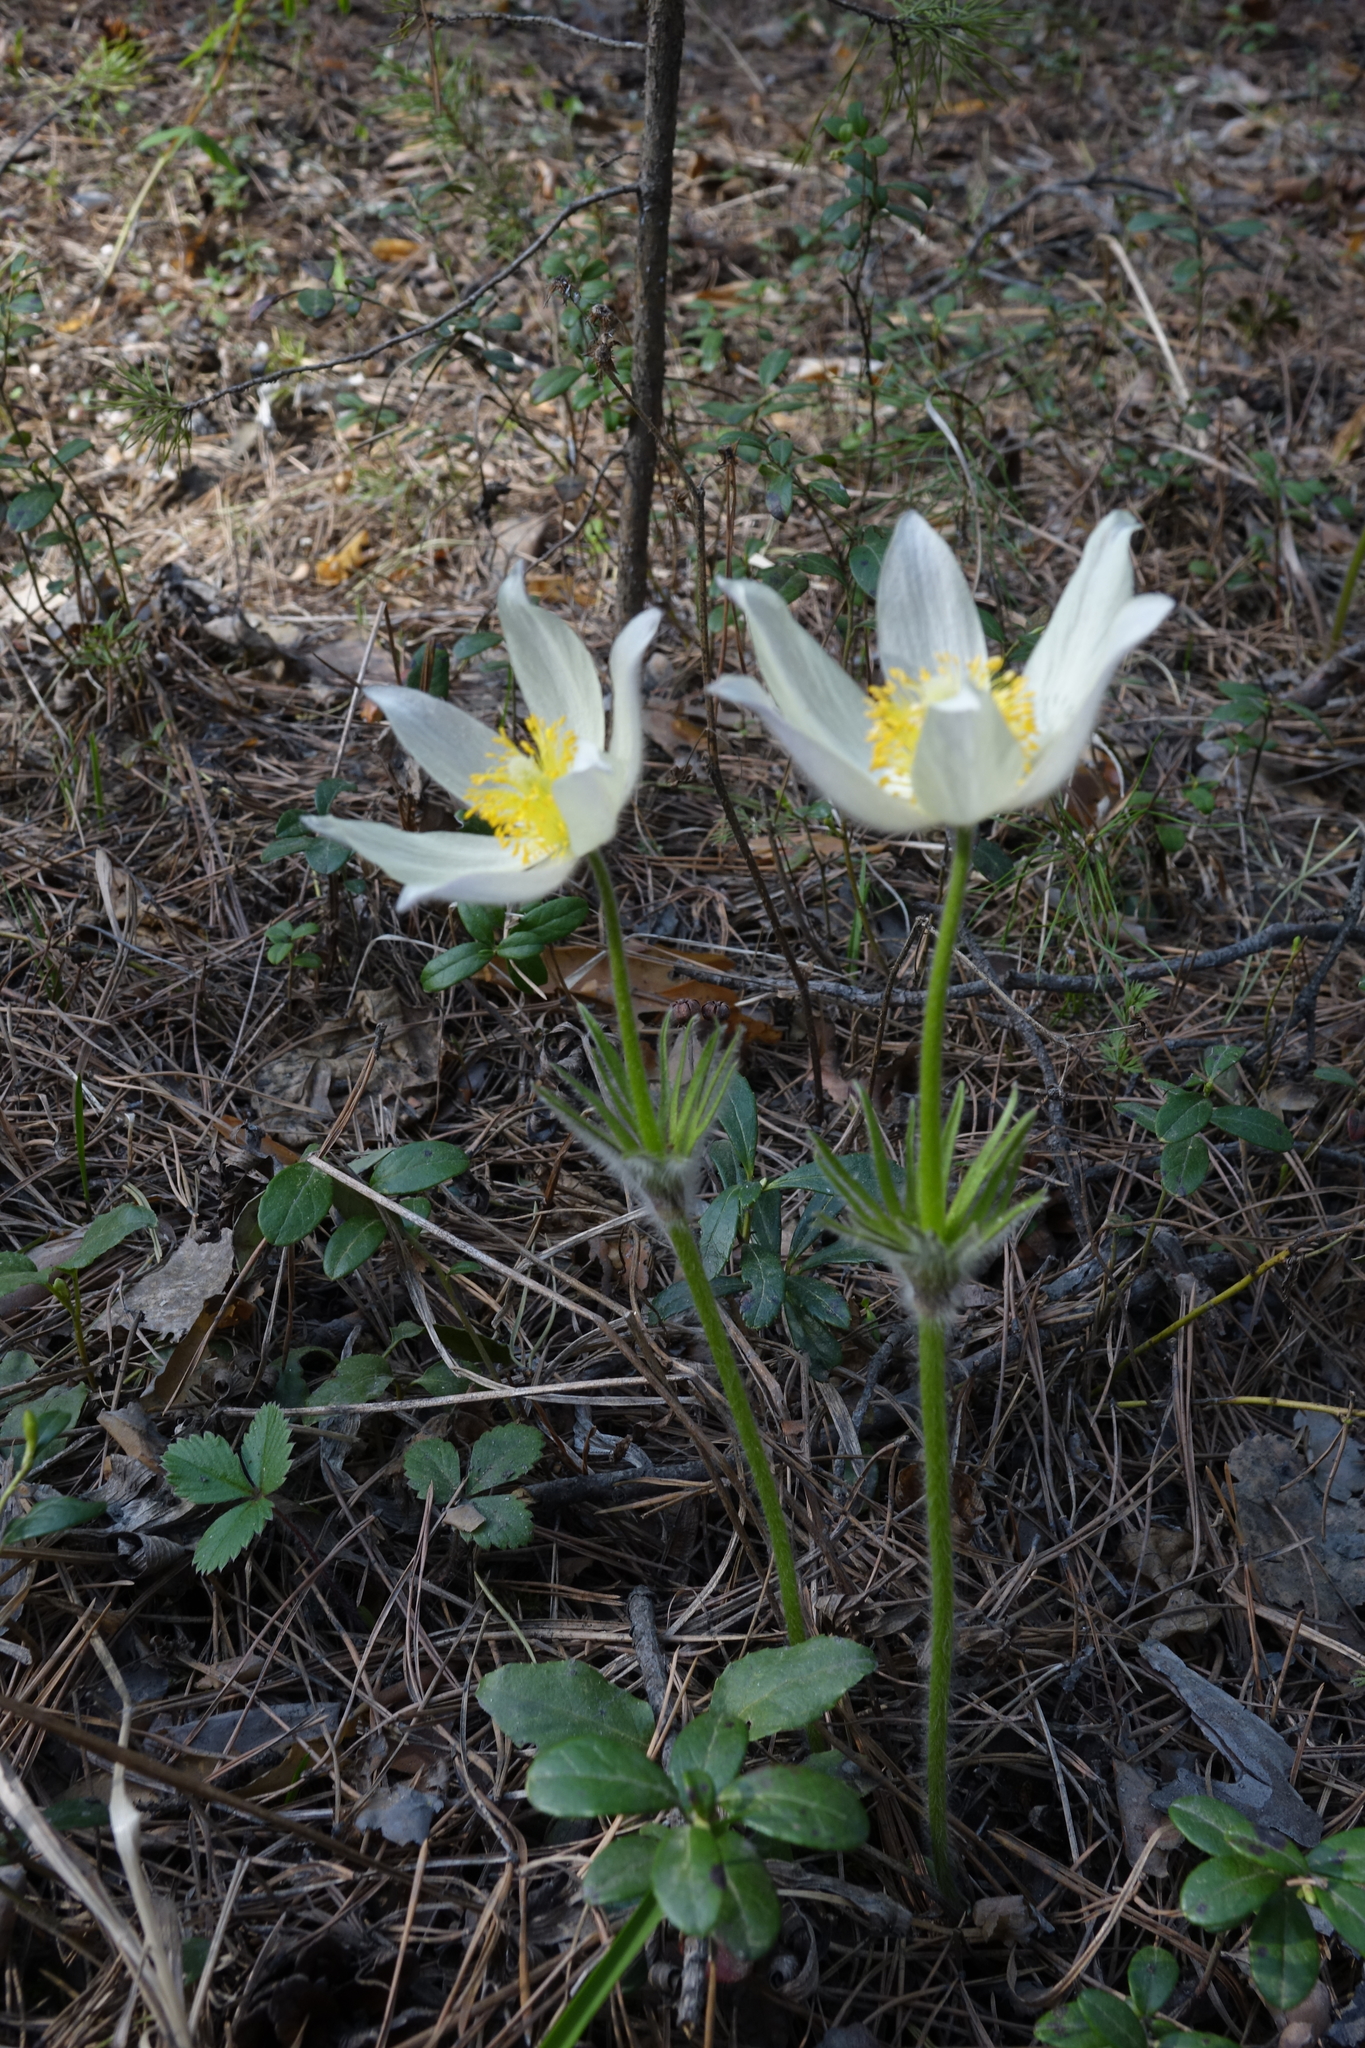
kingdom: Plantae
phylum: Tracheophyta
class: Magnoliopsida
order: Ranunculales
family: Ranunculaceae
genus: Pulsatilla
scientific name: Pulsatilla patens
